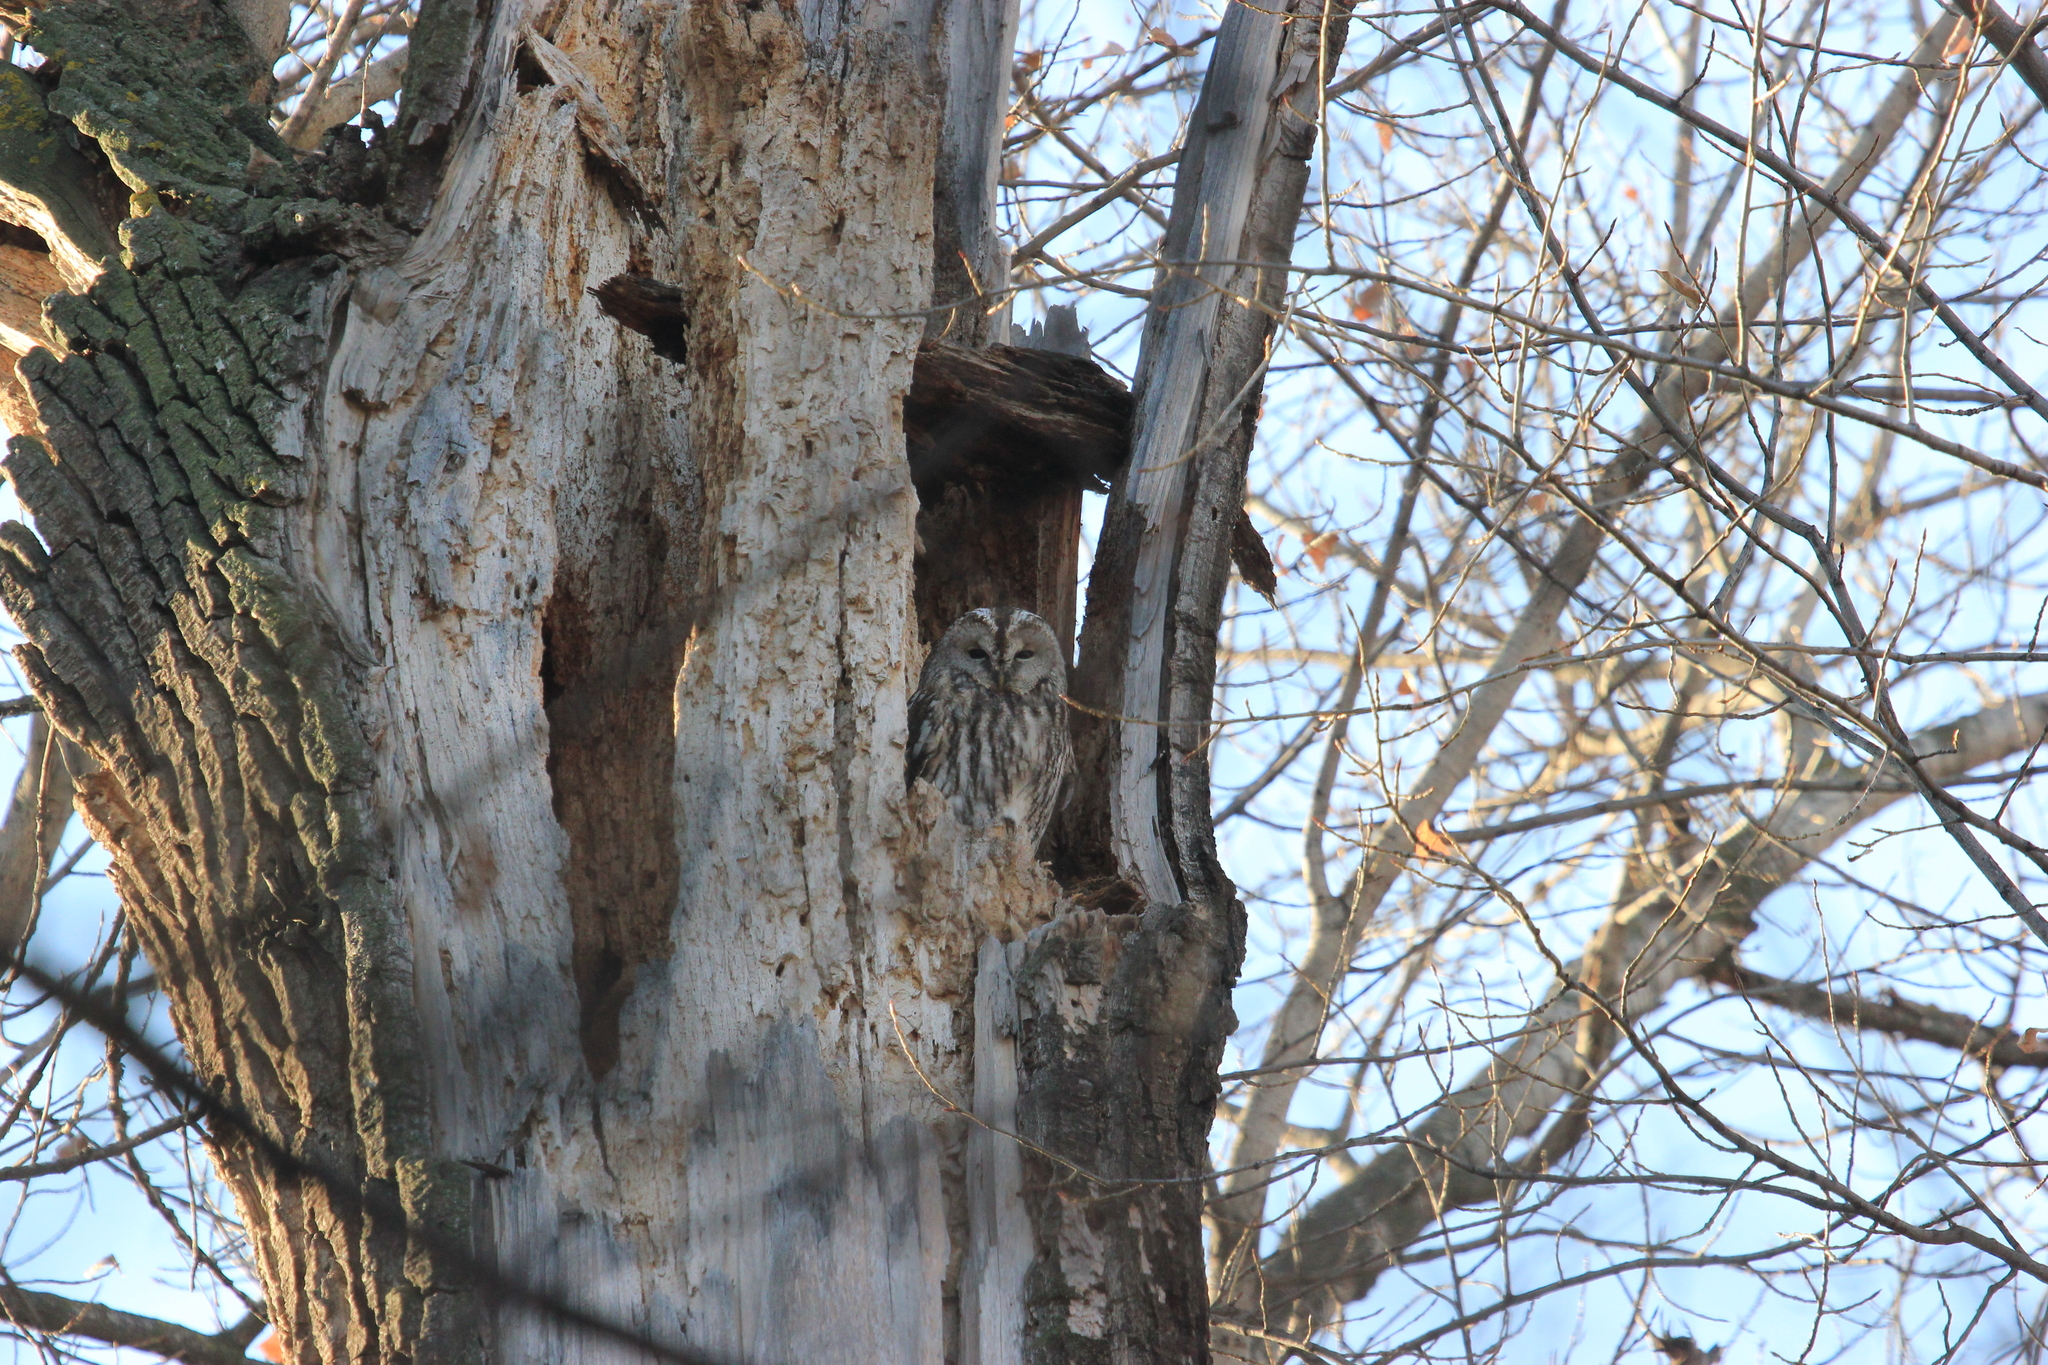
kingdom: Animalia
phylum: Chordata
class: Aves
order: Strigiformes
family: Strigidae
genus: Strix
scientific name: Strix aluco
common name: Tawny owl
